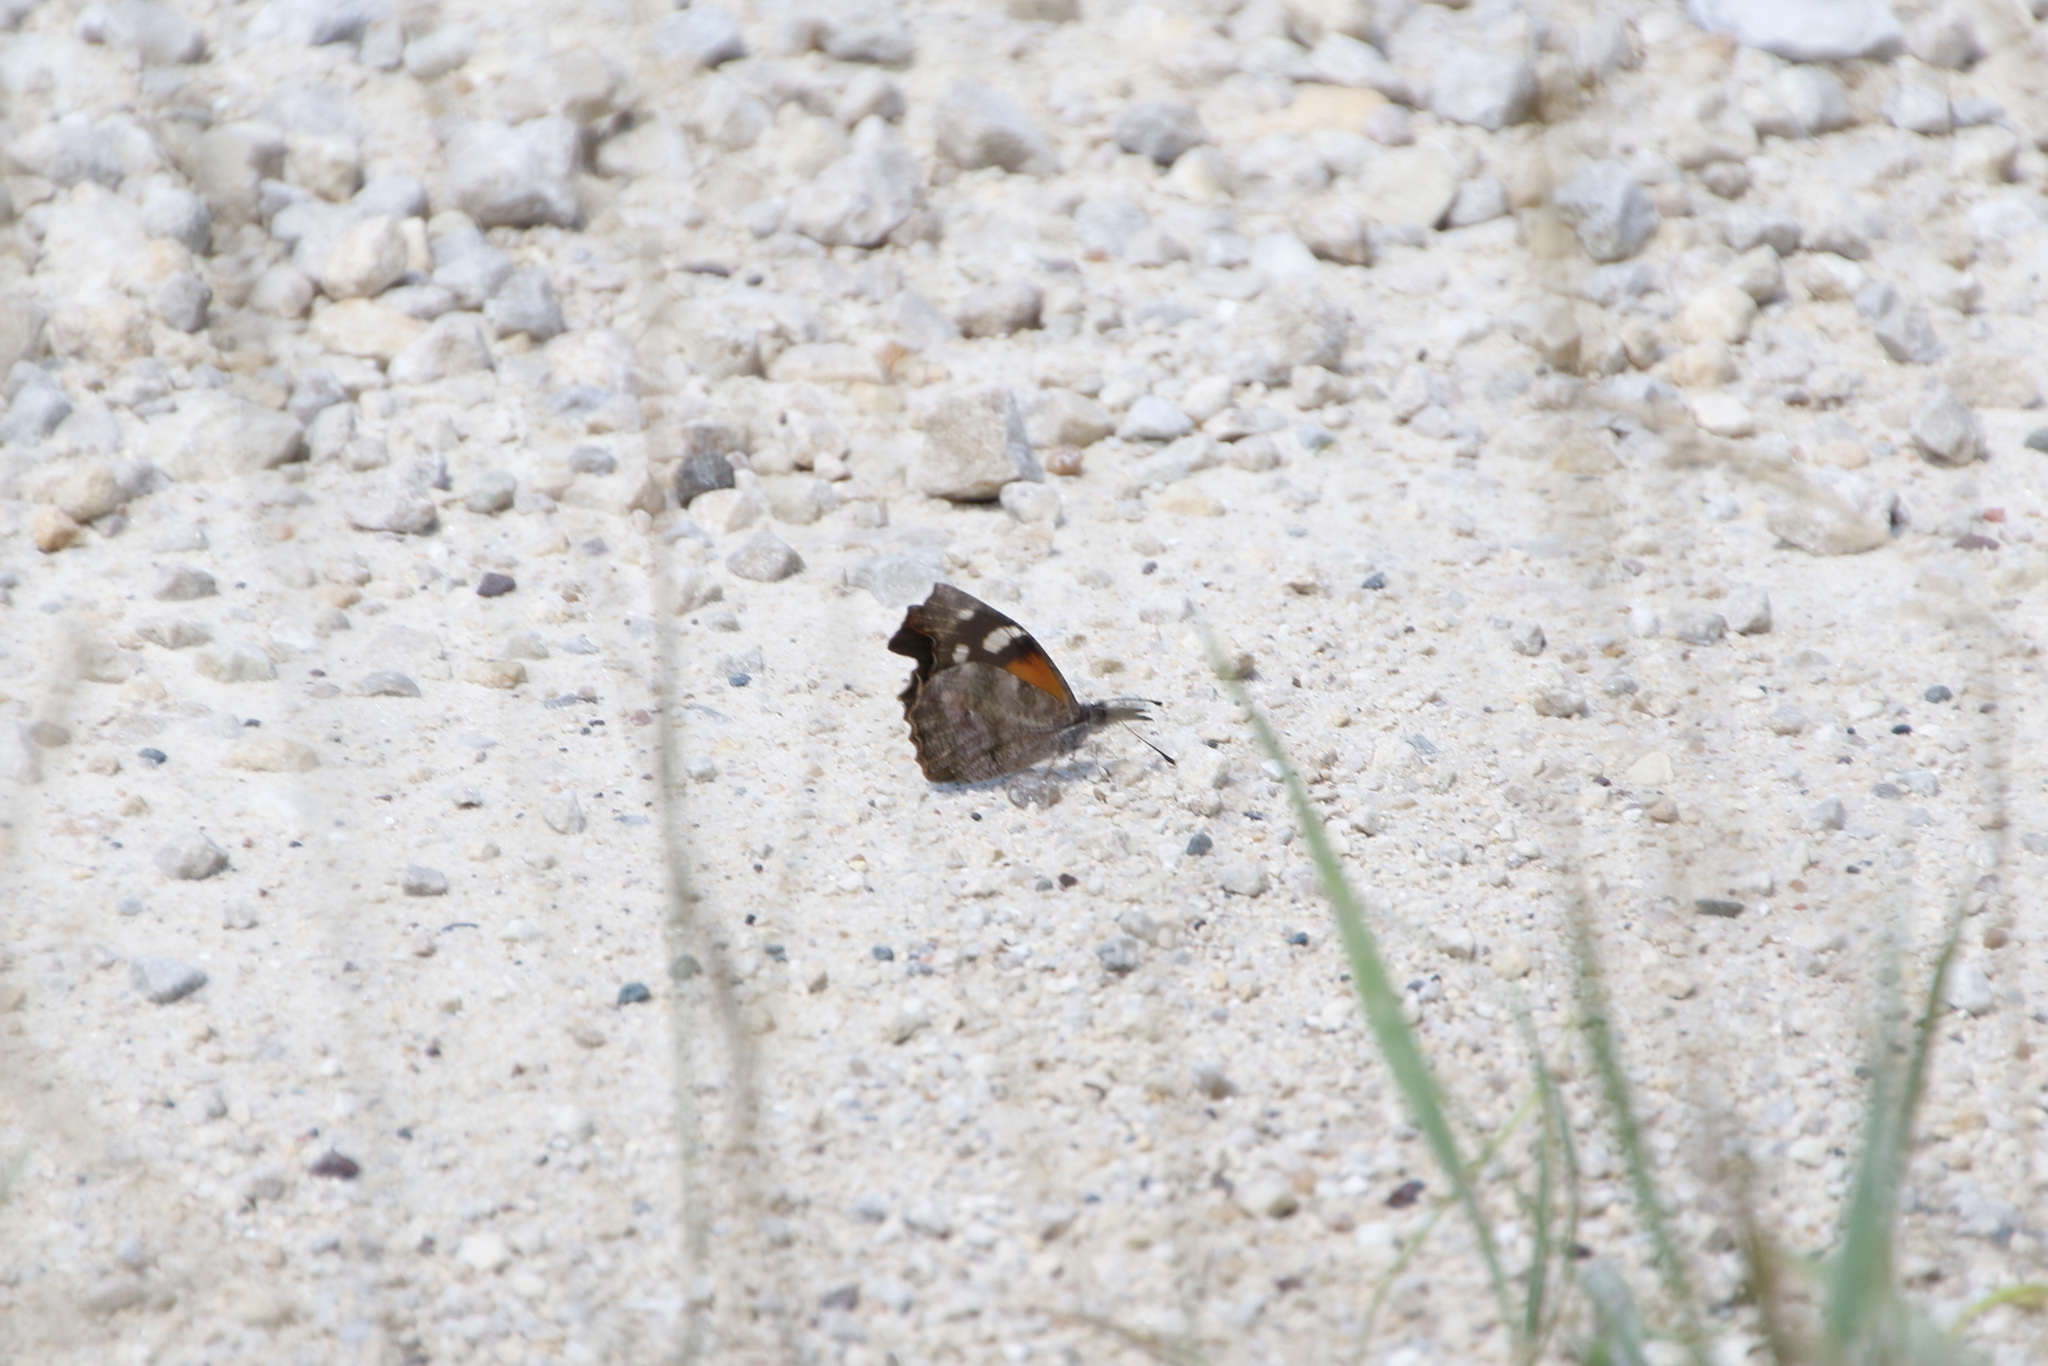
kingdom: Animalia
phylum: Arthropoda
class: Insecta
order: Lepidoptera
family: Nymphalidae
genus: Libytheana
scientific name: Libytheana carinenta
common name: American snout
